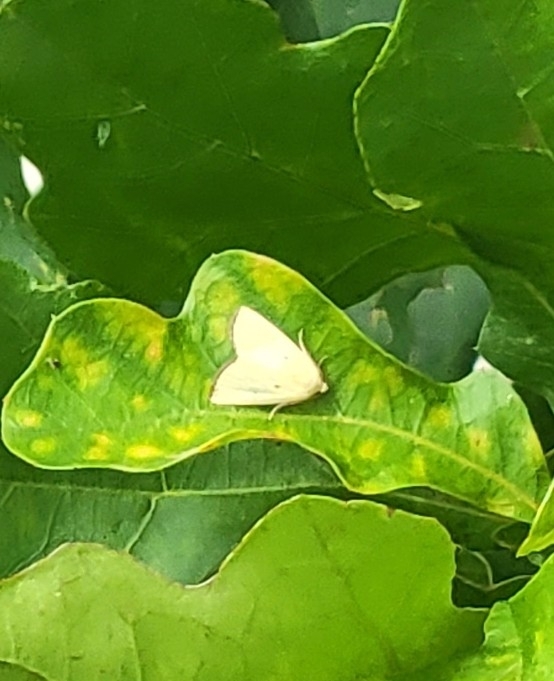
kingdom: Animalia
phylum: Arthropoda
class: Insecta
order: Lepidoptera
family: Noctuidae
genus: Marimatha
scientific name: Marimatha nigrofimbria
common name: Black-bordered lemon moth
